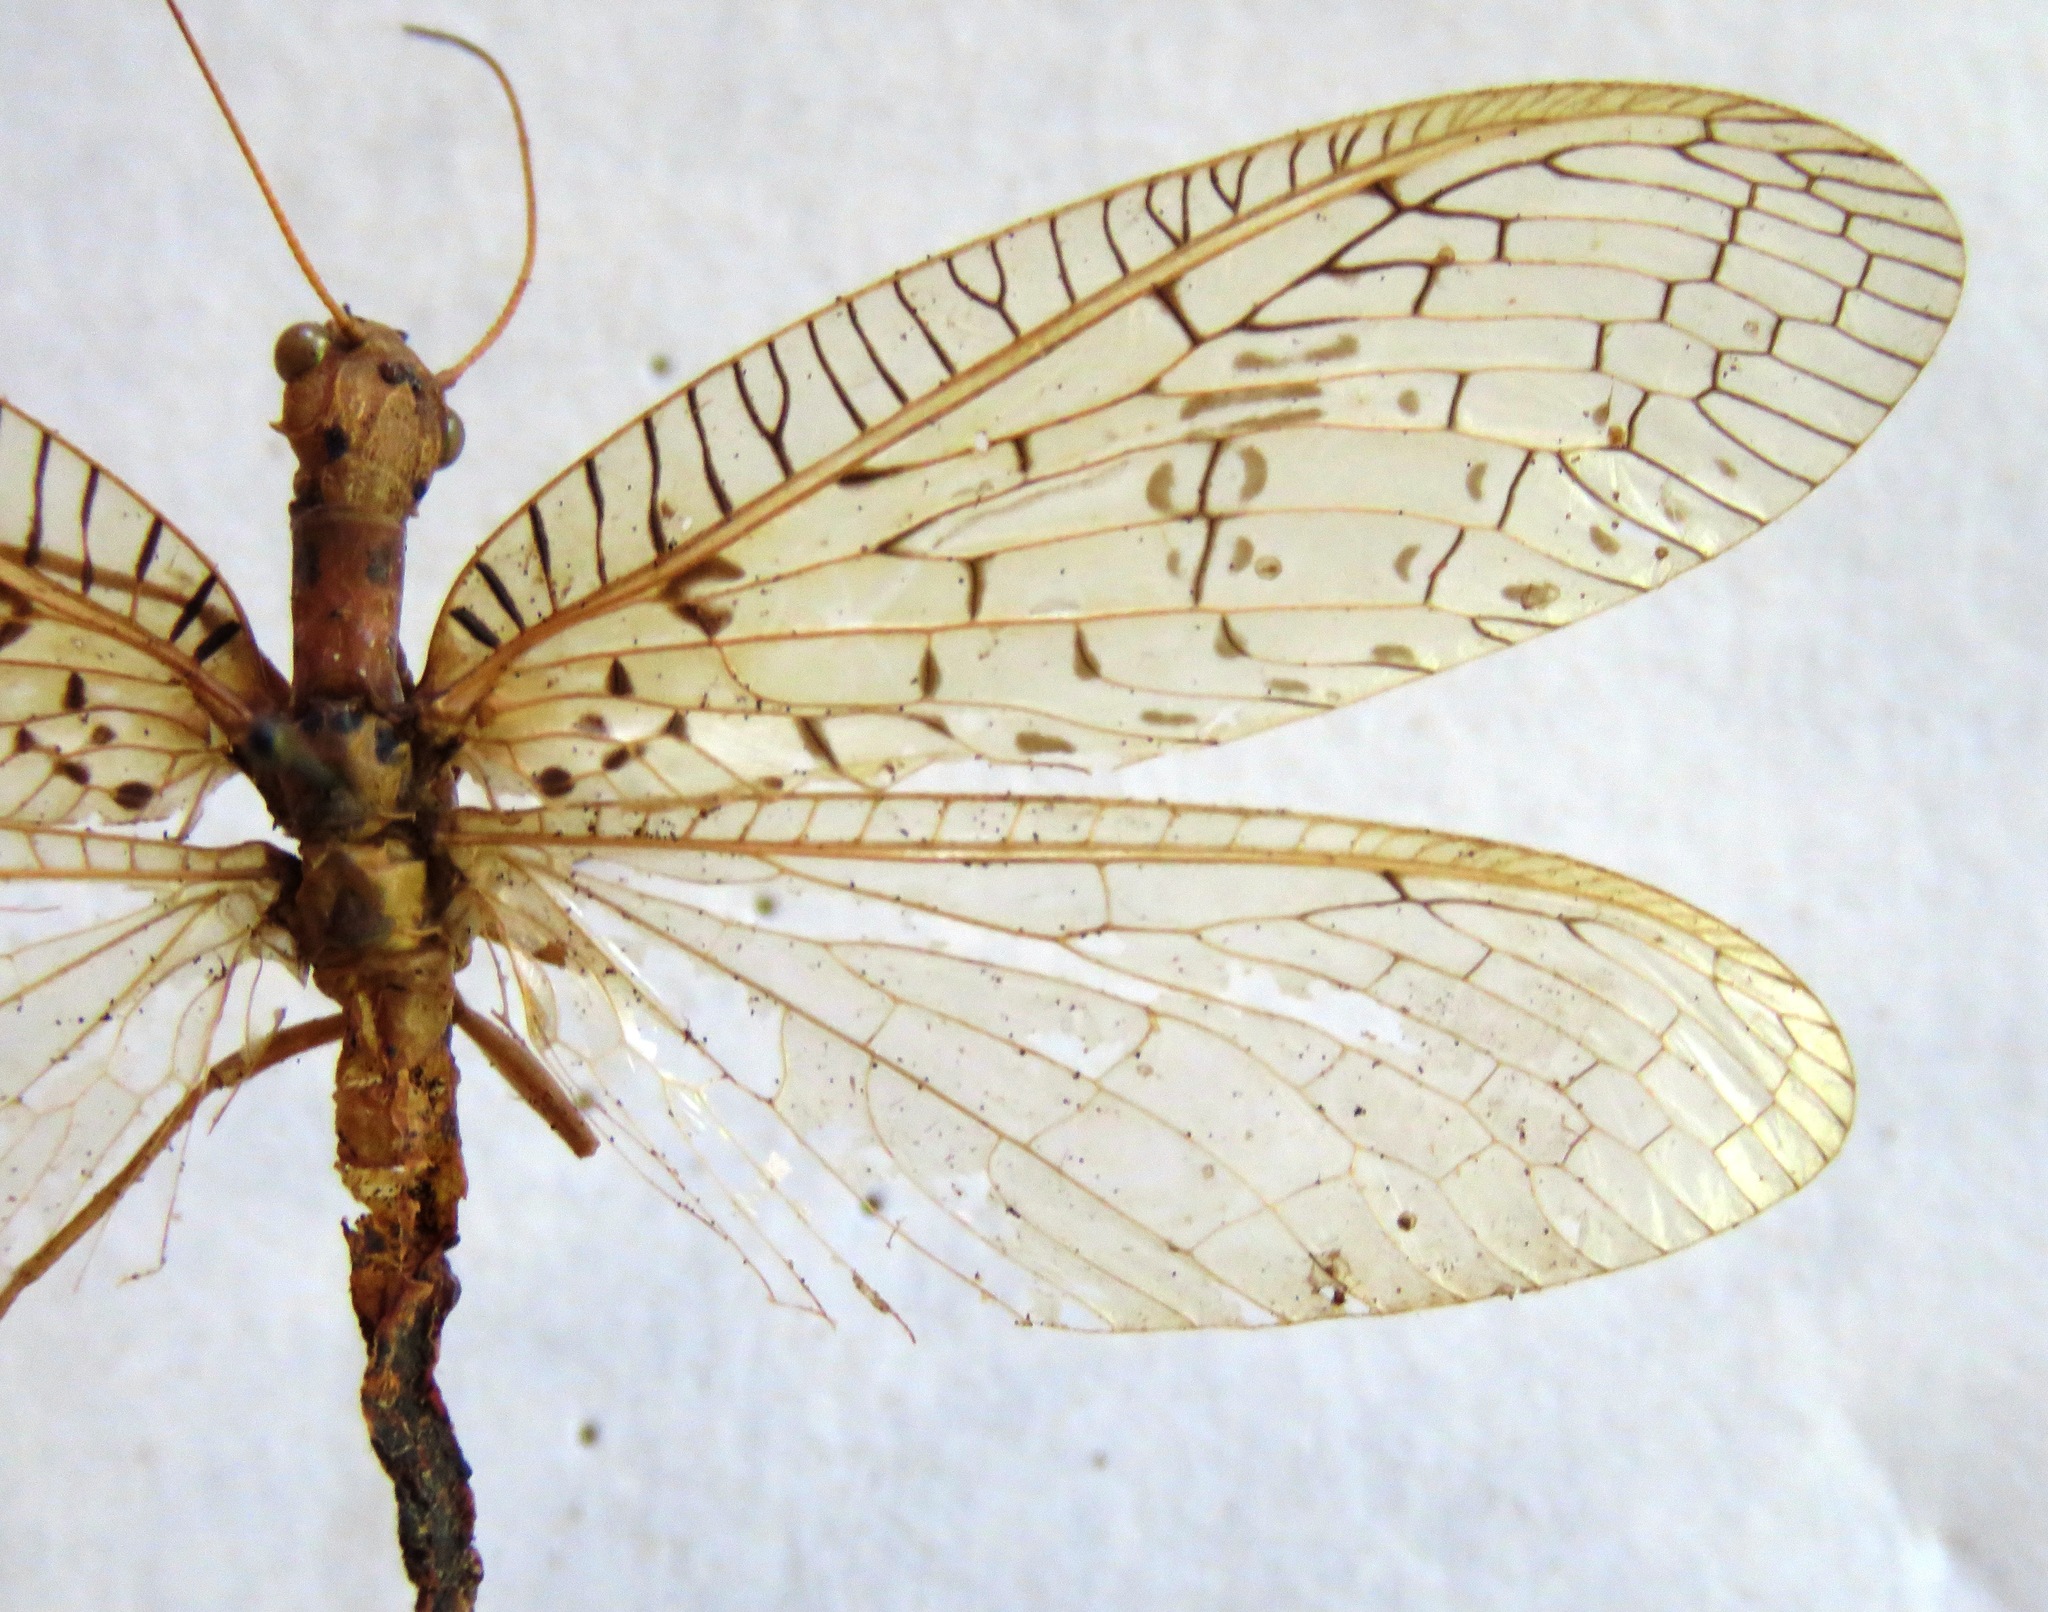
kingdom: Animalia
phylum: Arthropoda
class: Insecta
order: Megaloptera
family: Corydalidae
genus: Chloronia
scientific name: Chloronia mirifica
